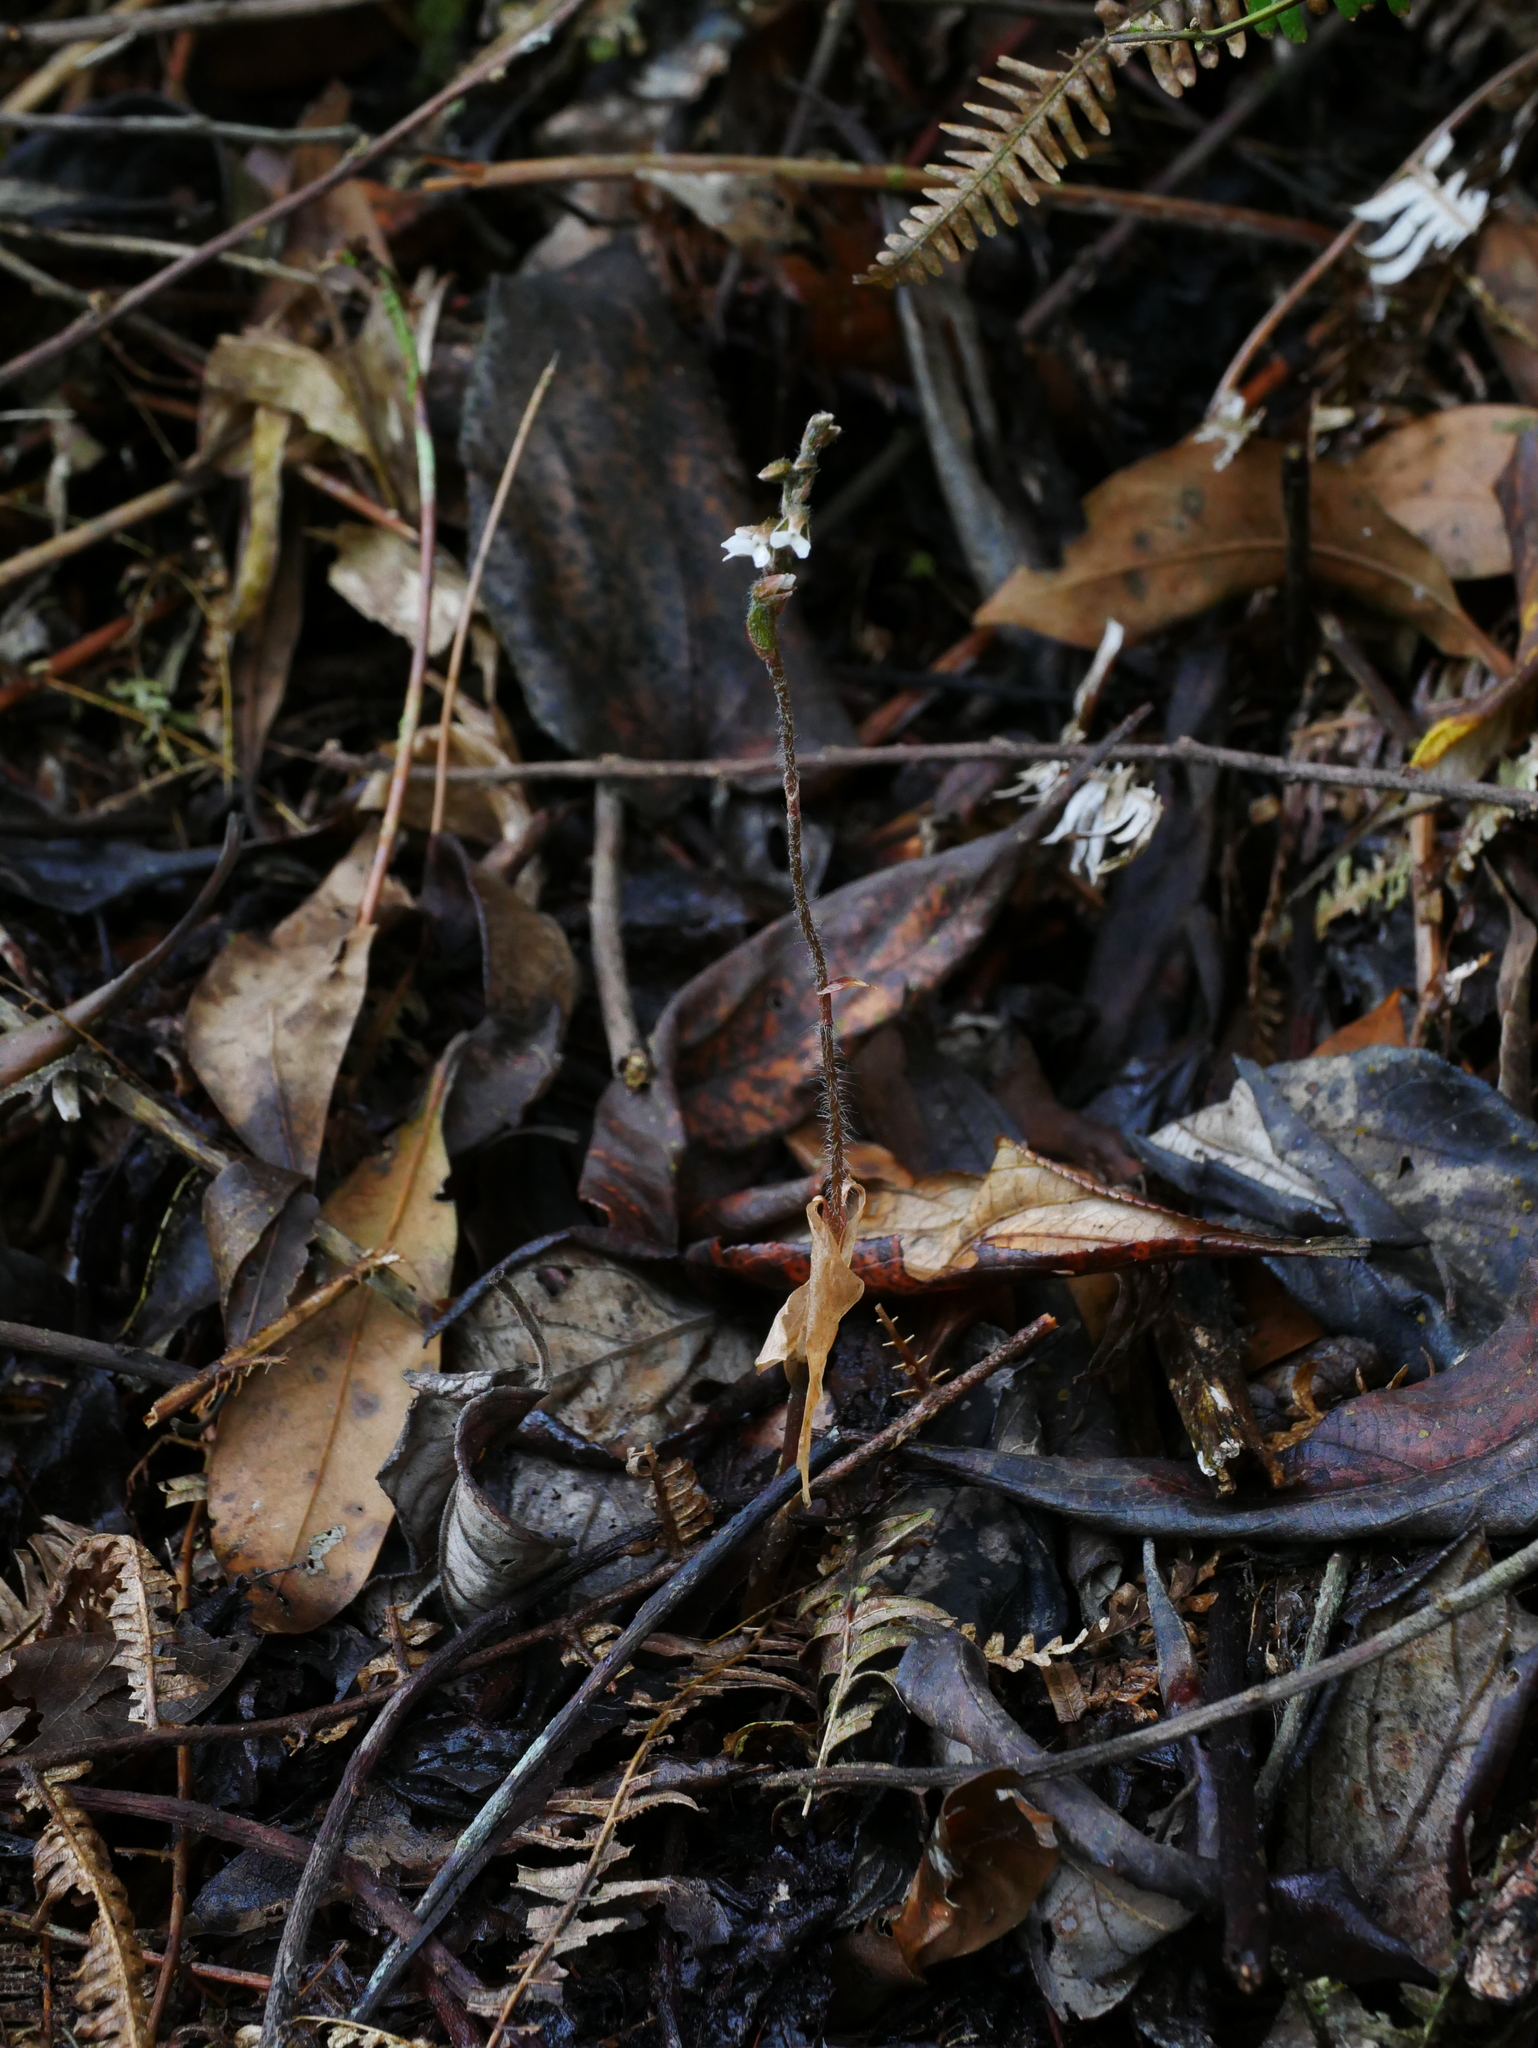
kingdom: Plantae
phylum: Tracheophyta
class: Liliopsida
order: Asparagales
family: Orchidaceae
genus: Zeuxine
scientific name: Zeuxine reflexa
